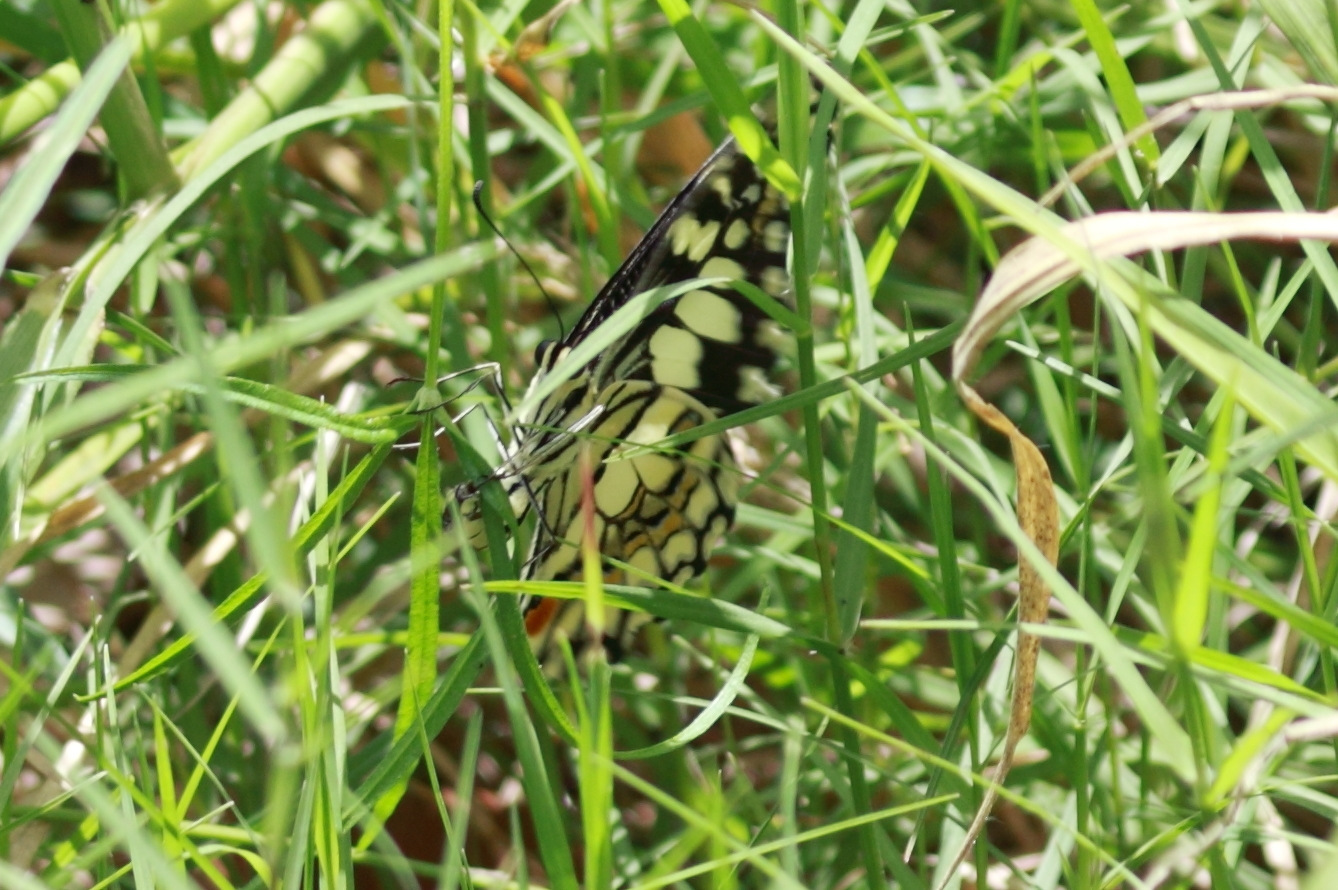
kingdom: Animalia
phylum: Arthropoda
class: Insecta
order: Lepidoptera
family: Papilionidae
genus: Papilio
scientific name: Papilio demoleus
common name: Lime butterfly
